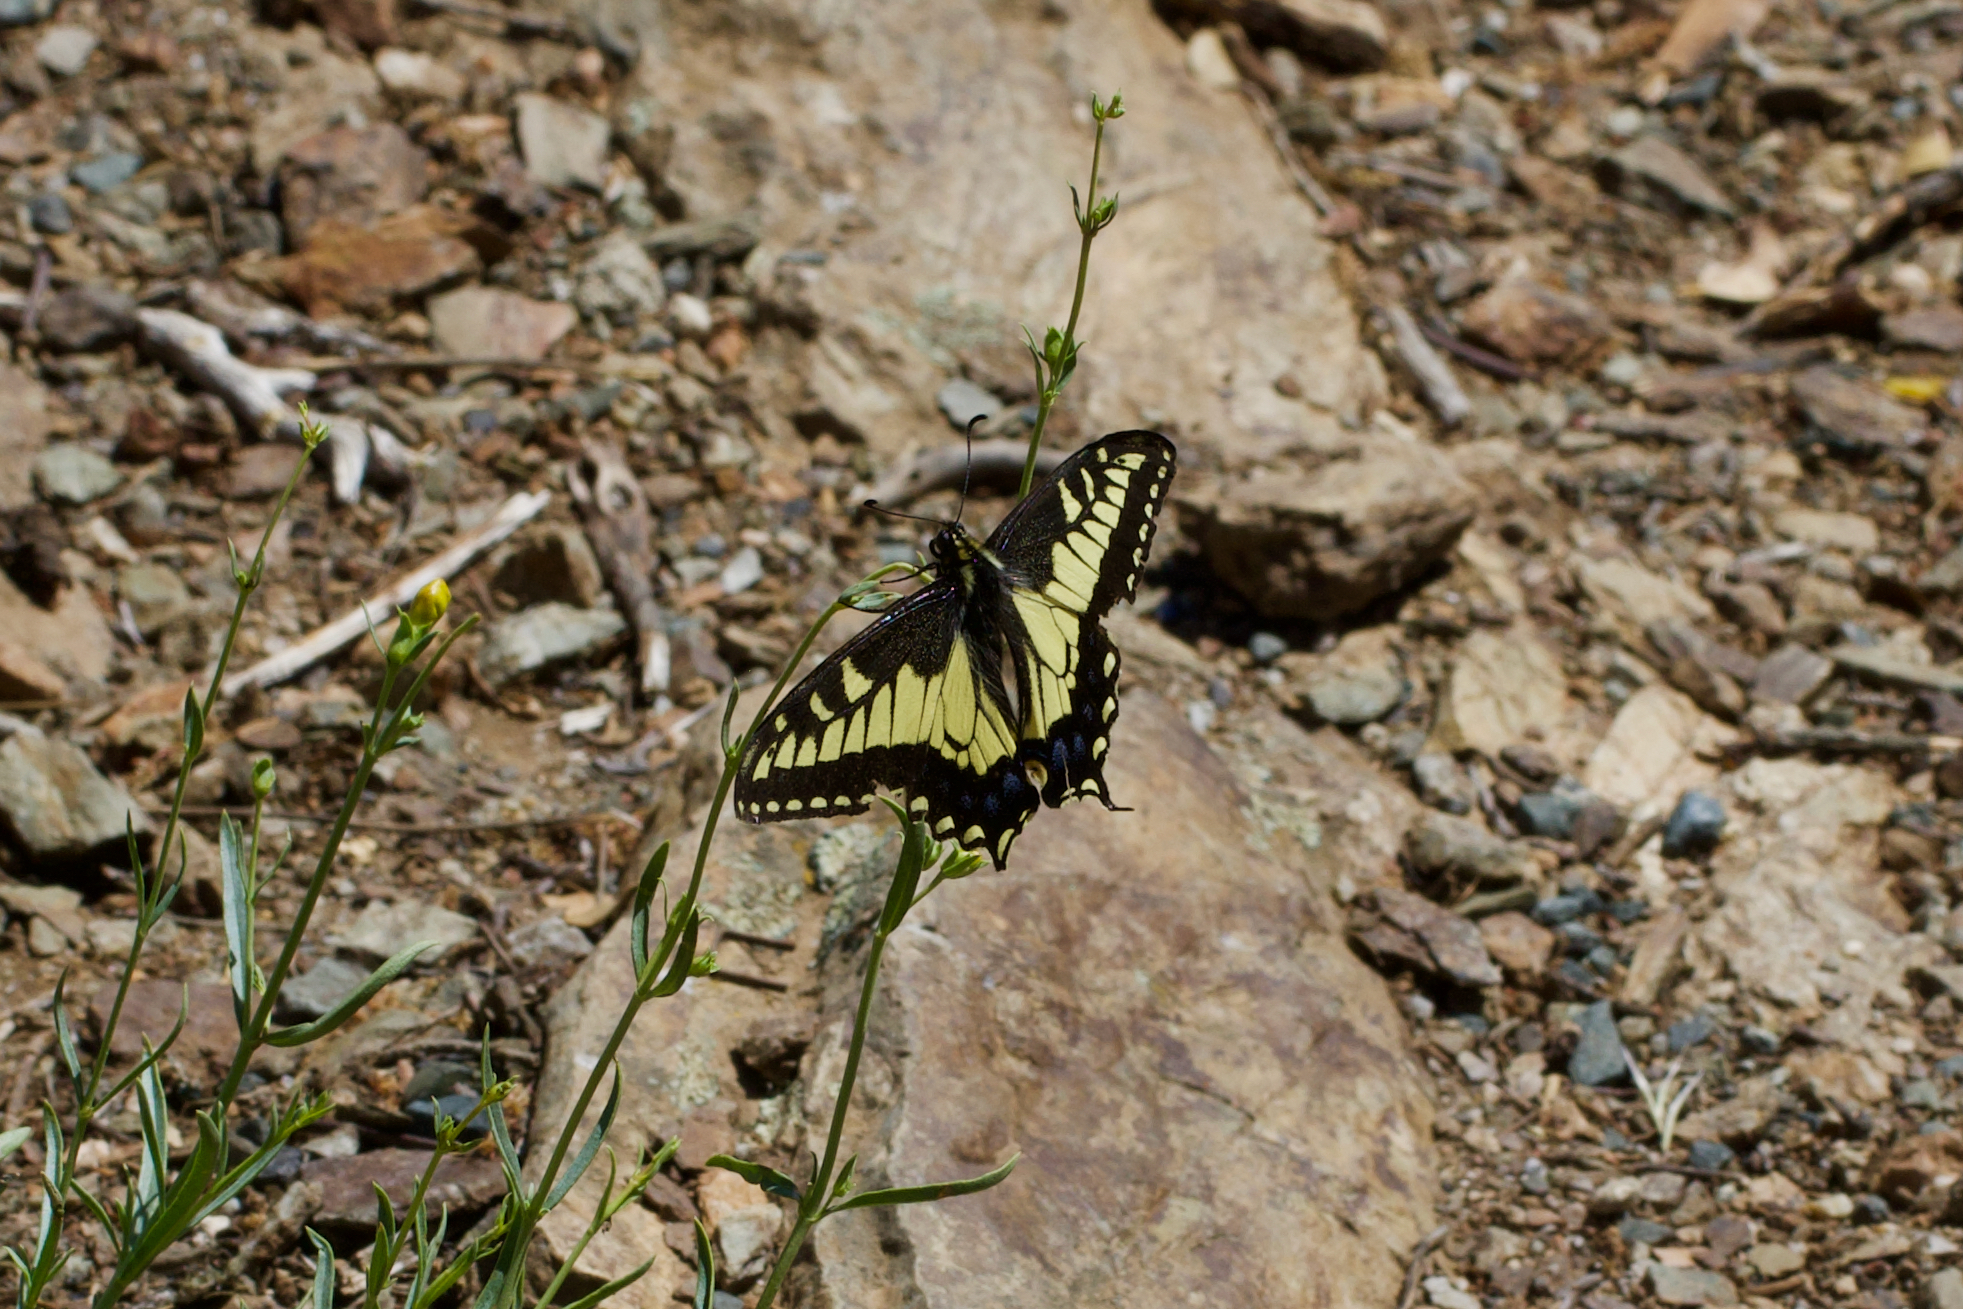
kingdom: Animalia
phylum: Arthropoda
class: Insecta
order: Lepidoptera
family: Papilionidae
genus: Papilio
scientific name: Papilio zelicaon
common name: Anise swallowtail
